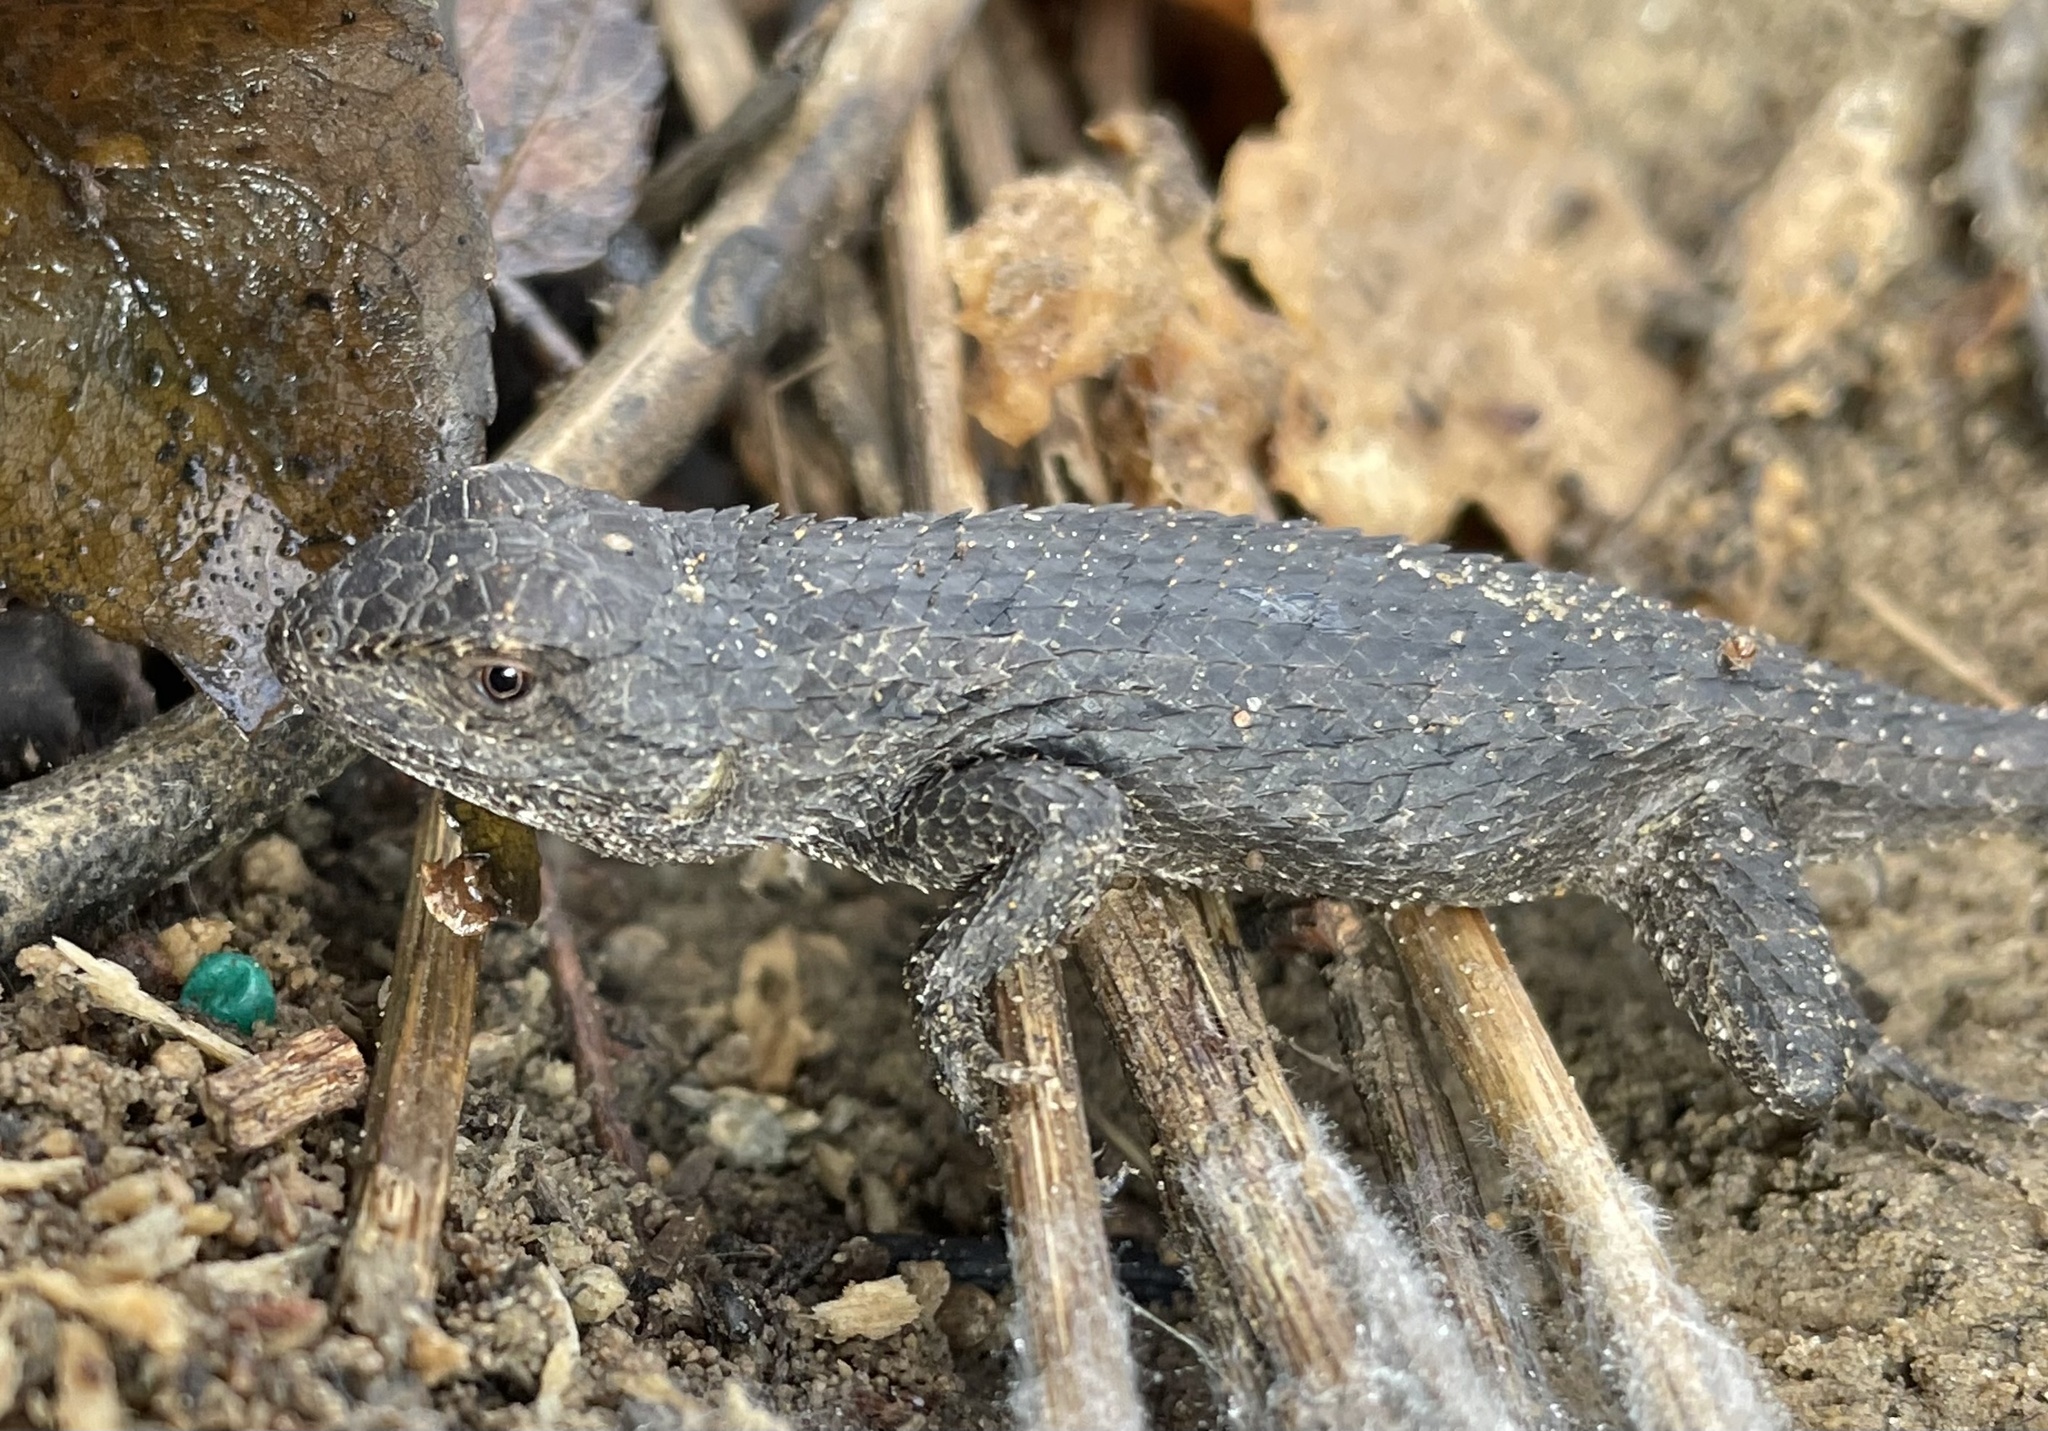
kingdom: Animalia
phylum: Chordata
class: Squamata
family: Phrynosomatidae
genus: Sceloporus
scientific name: Sceloporus olivaceus
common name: Texas spiny lizard
